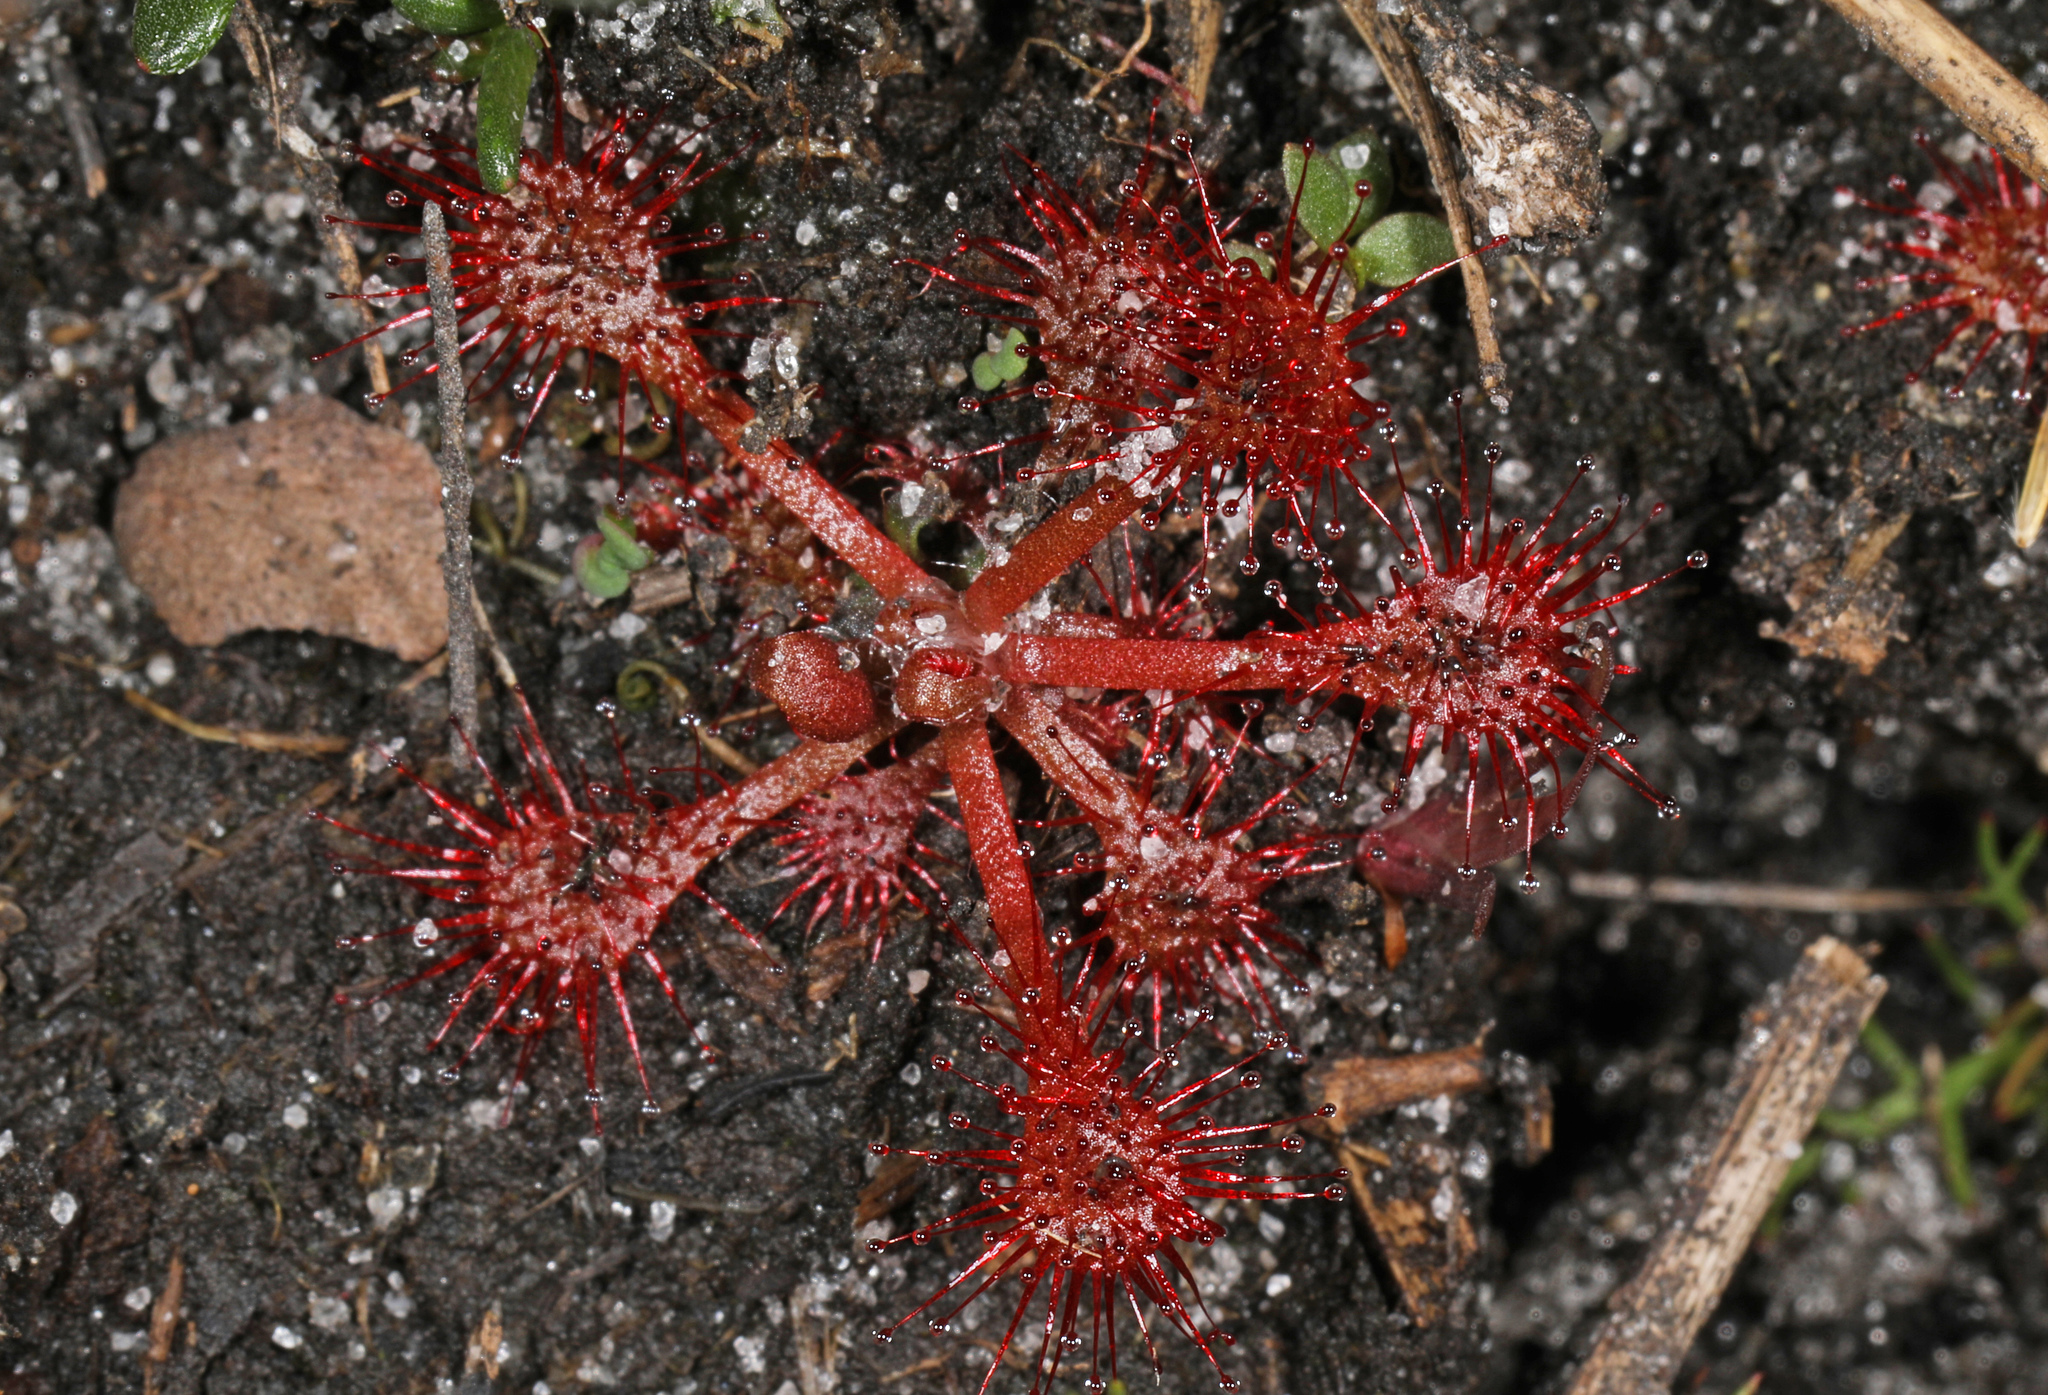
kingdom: Plantae
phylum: Tracheophyta
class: Magnoliopsida
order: Caryophyllales
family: Droseraceae
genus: Drosera
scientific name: Drosera capillaris
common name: Pink sundew
